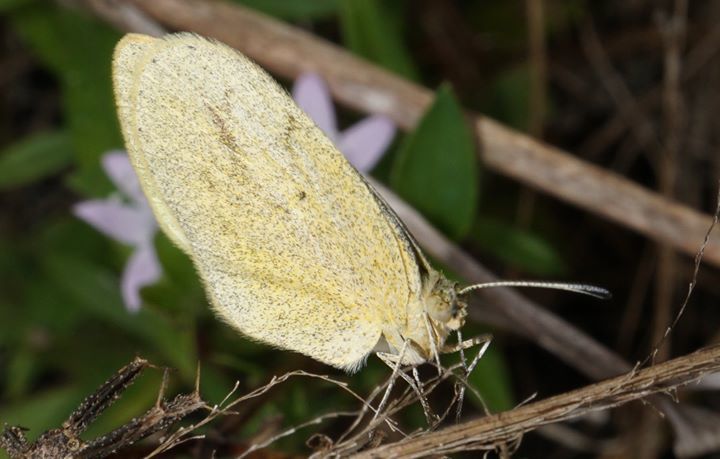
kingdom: Animalia
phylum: Arthropoda
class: Insecta
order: Lepidoptera
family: Pieridae
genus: Eurema
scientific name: Eurema daira
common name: Barred sulphur
